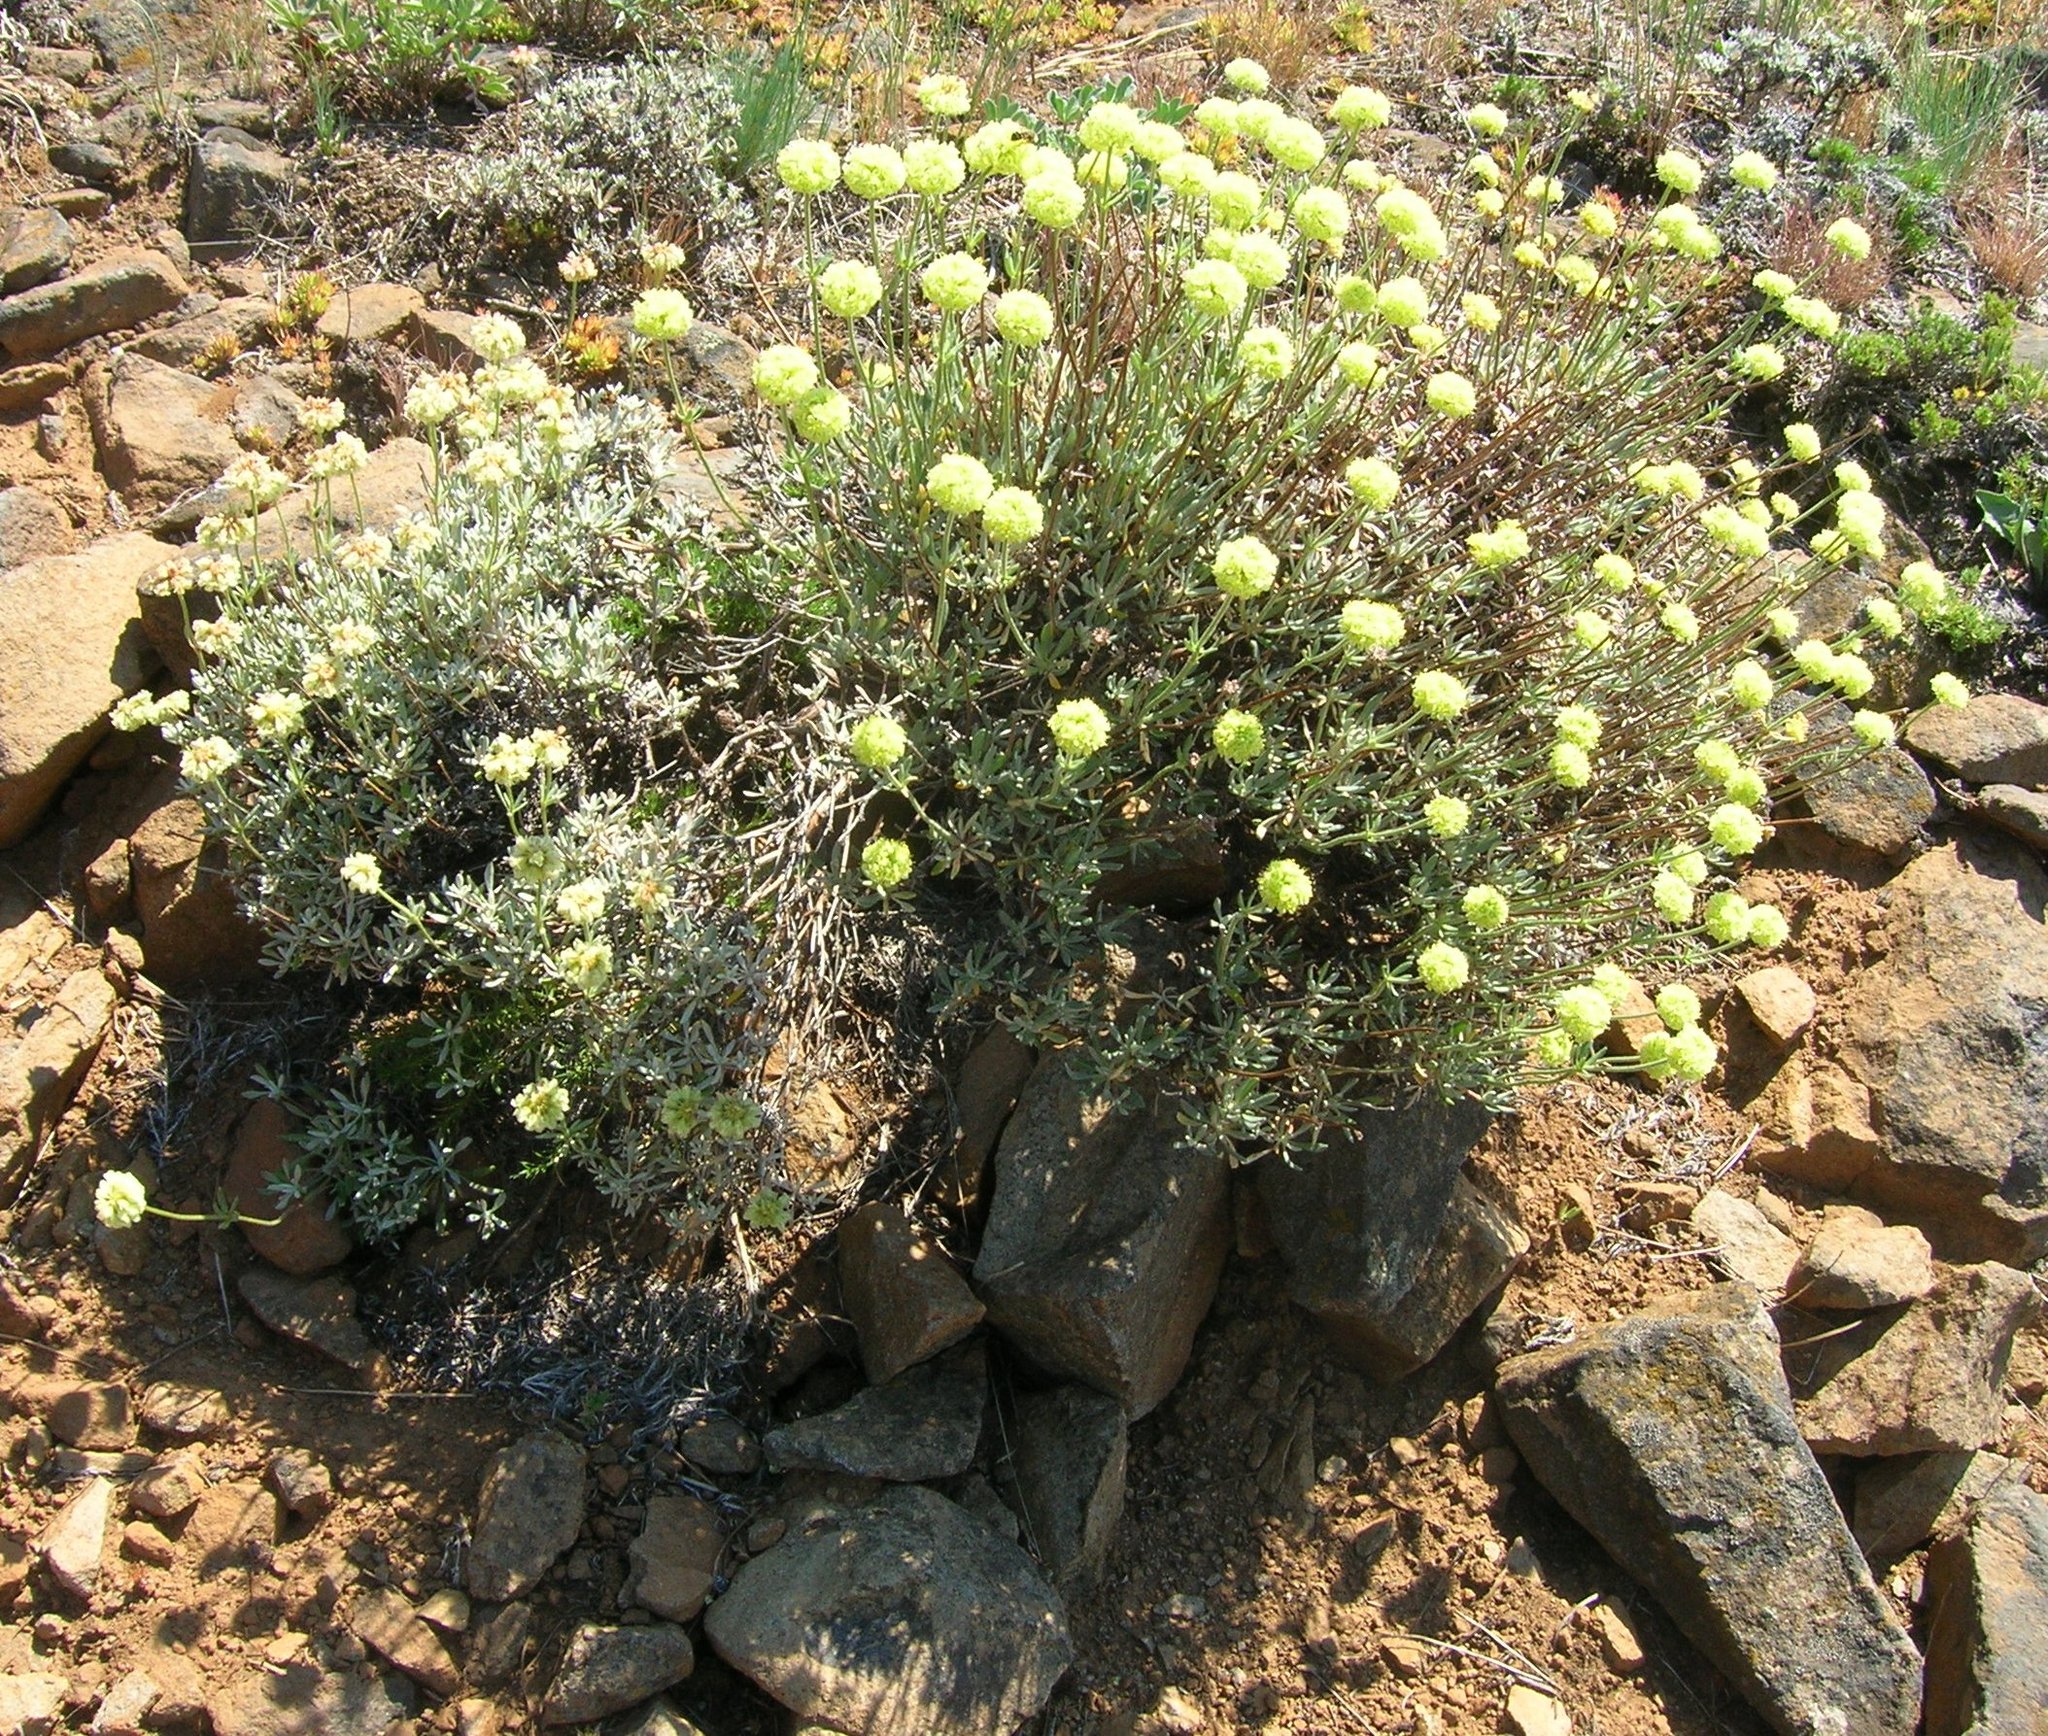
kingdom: Plantae
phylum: Tracheophyta
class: Magnoliopsida
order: Caryophyllales
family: Polygonaceae
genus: Eriogonum
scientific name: Eriogonum douglasii
